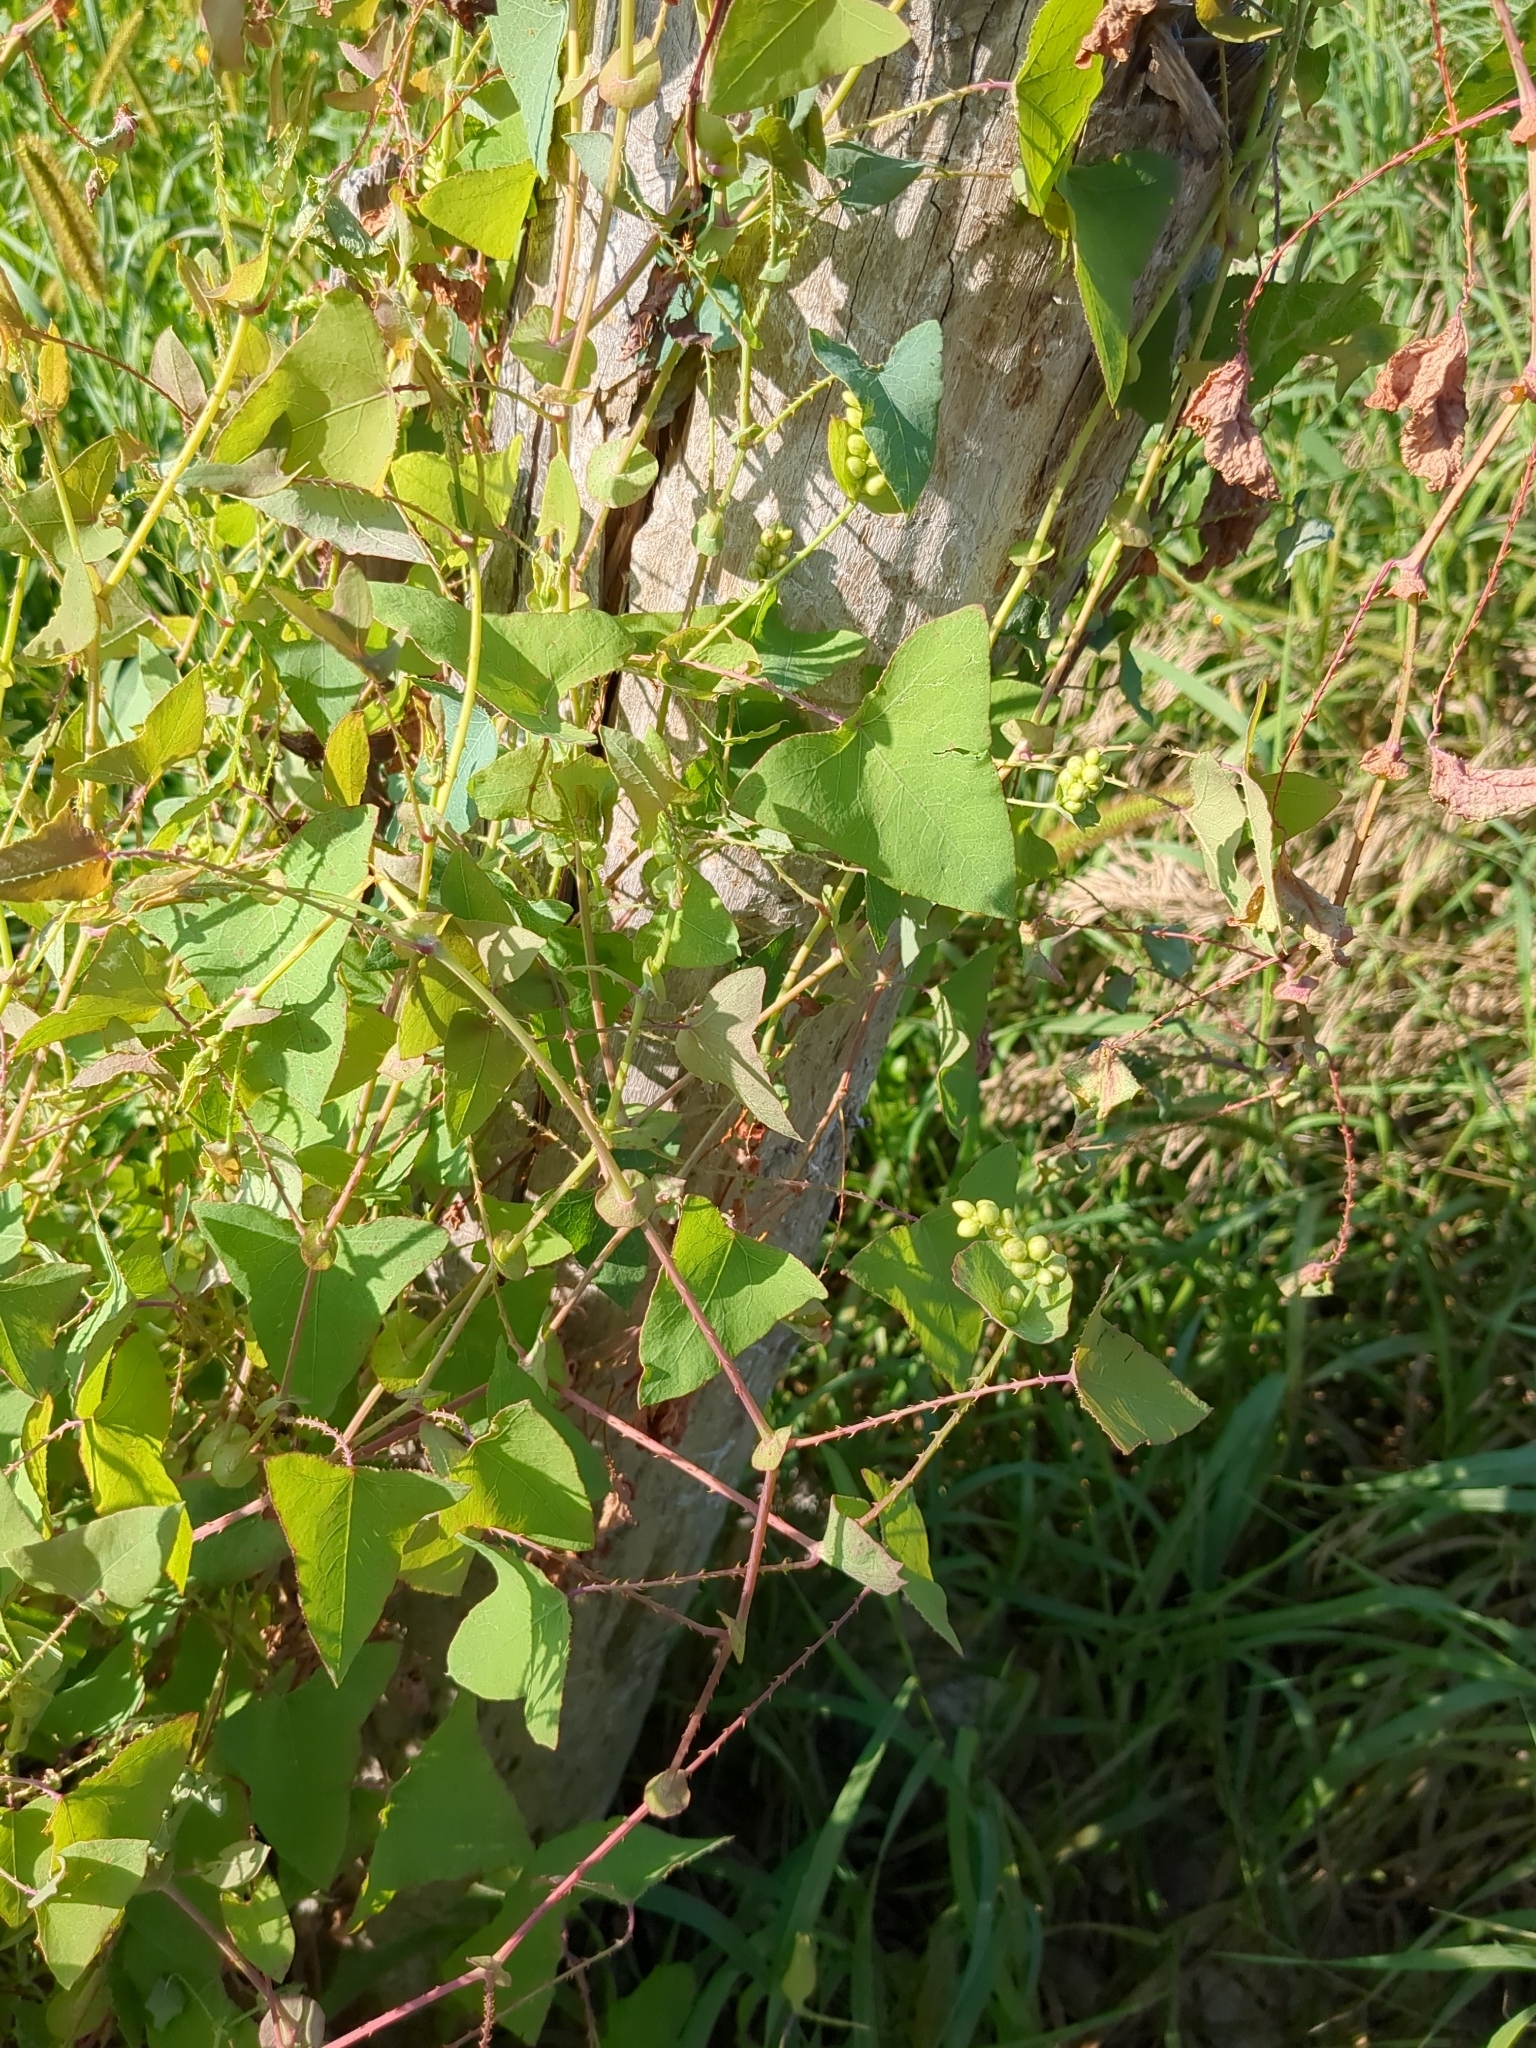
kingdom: Plantae
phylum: Tracheophyta
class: Magnoliopsida
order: Caryophyllales
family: Polygonaceae
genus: Persicaria
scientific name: Persicaria perfoliata
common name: Asiatic tearthumb
